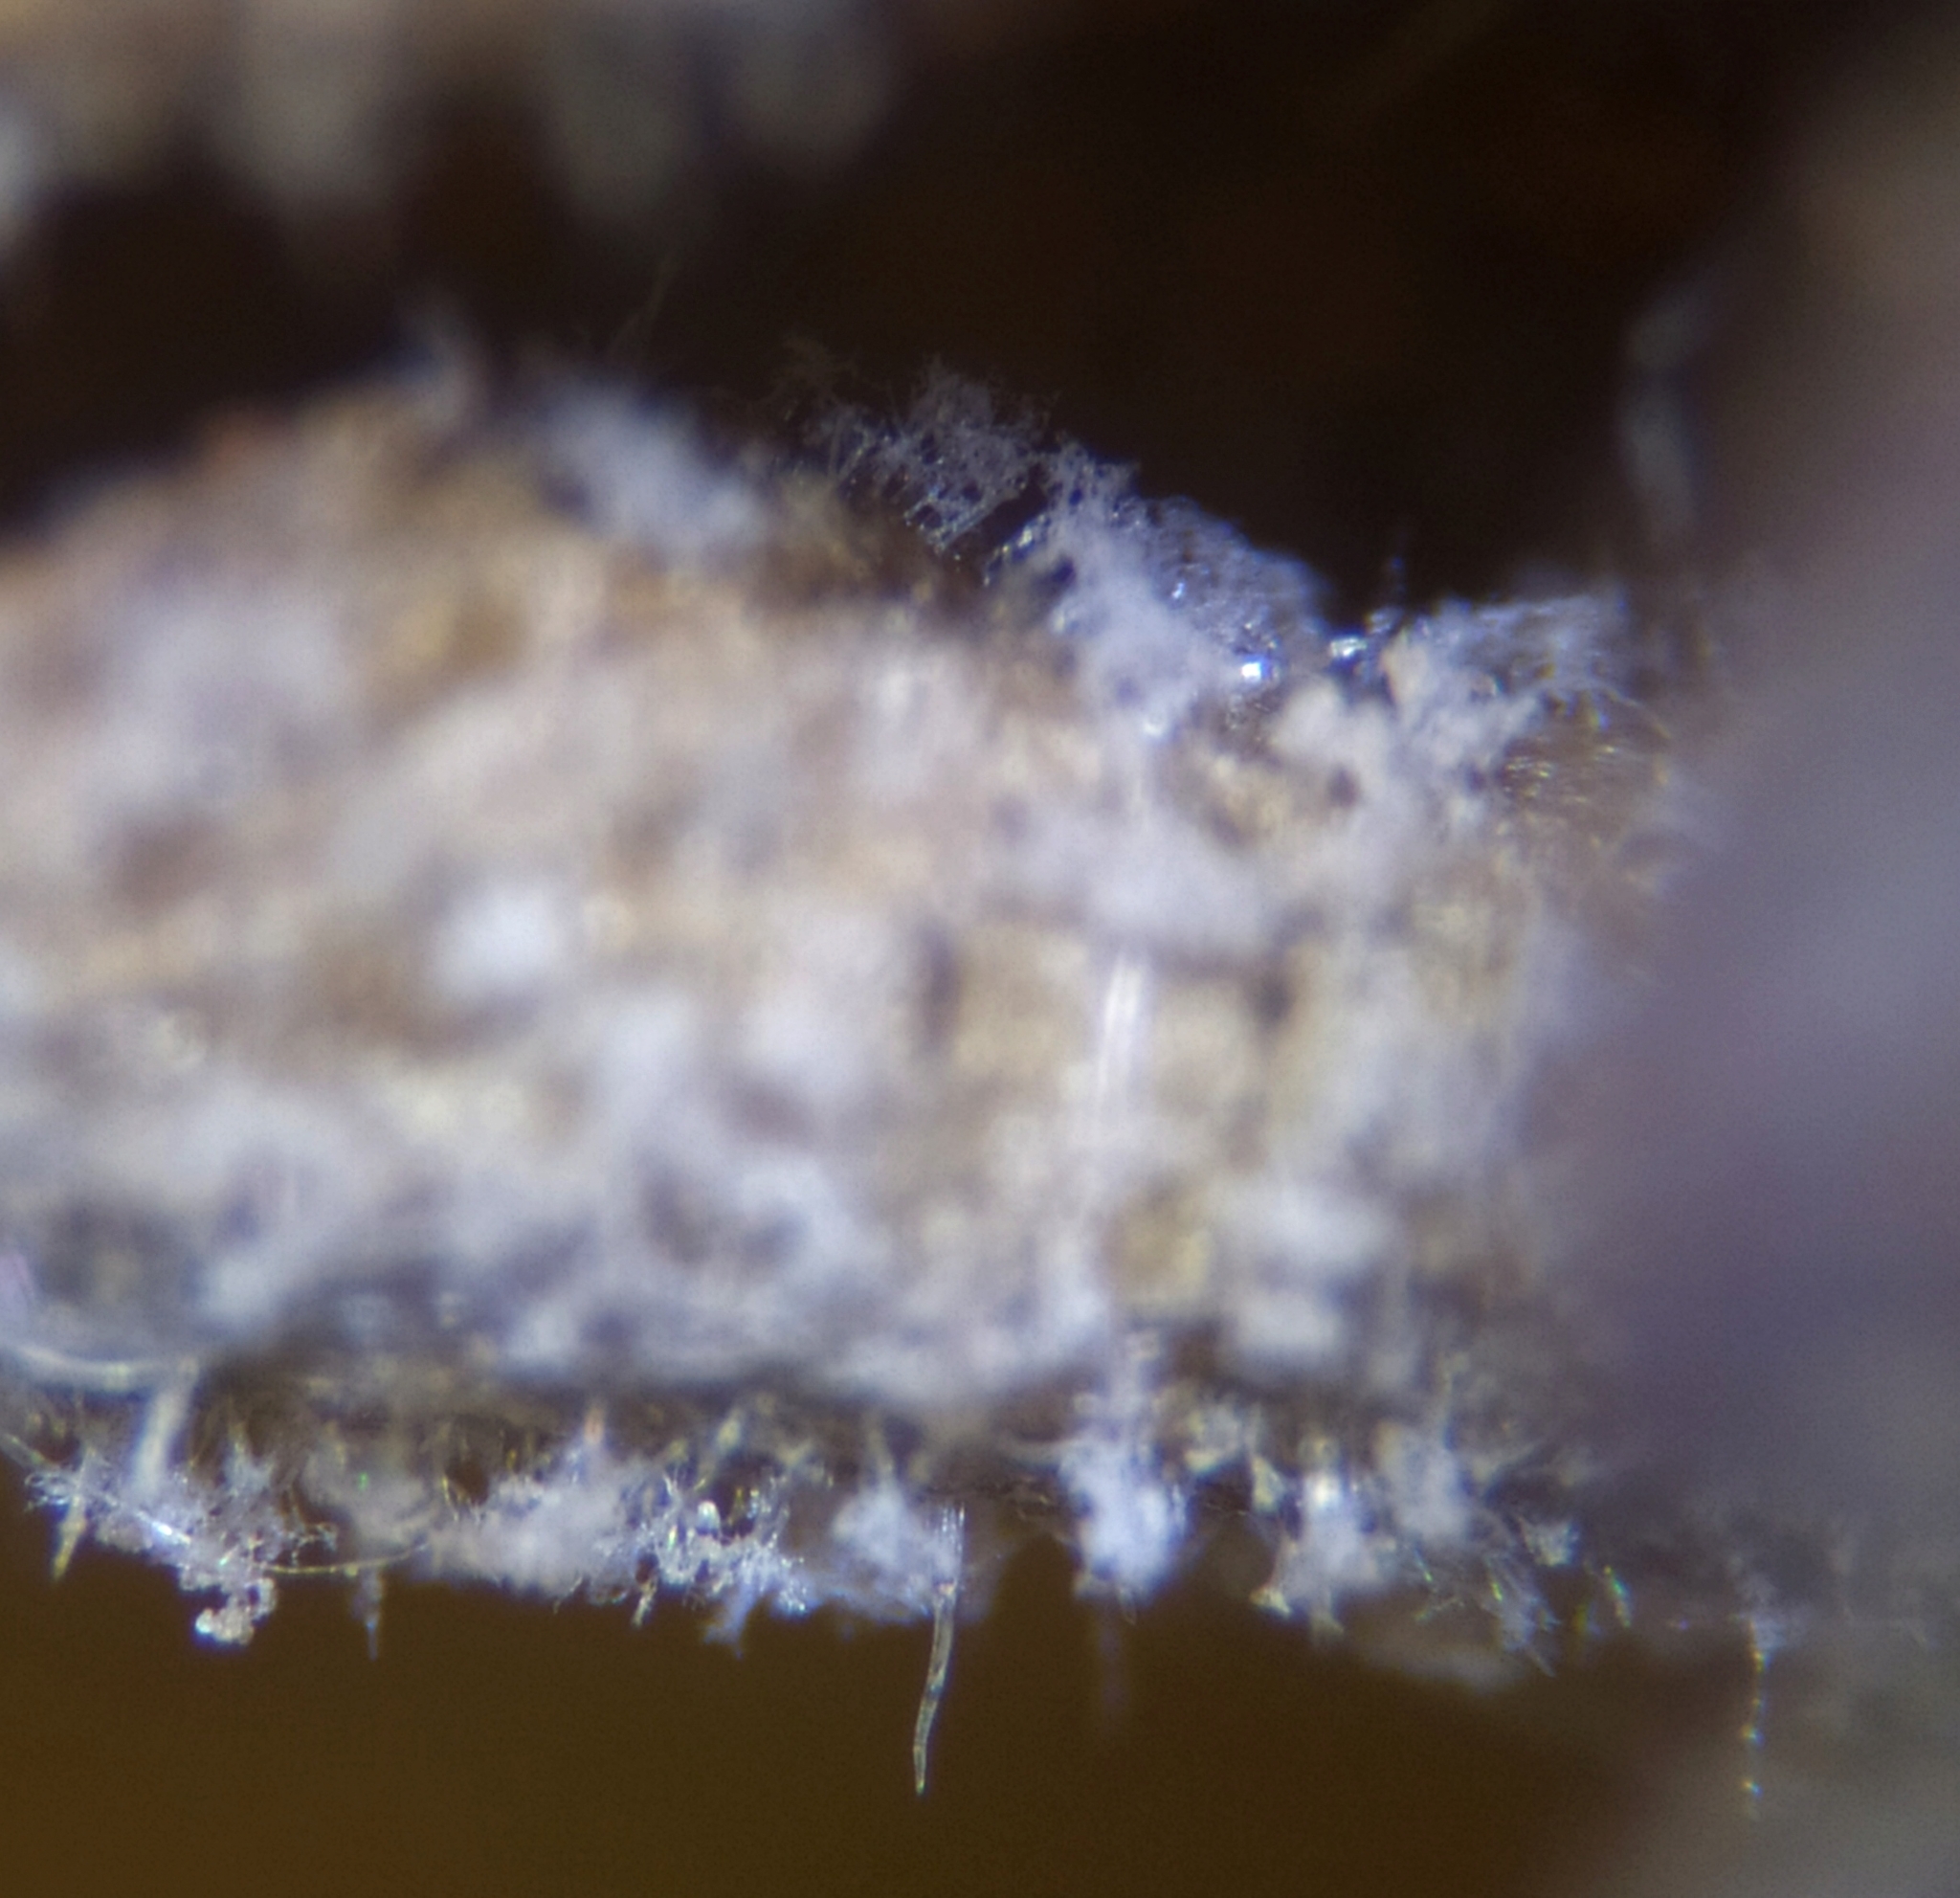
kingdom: Chromista
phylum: Oomycota
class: Peronosporea
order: Peronosporales
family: Peronosporaceae
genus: Peronospora
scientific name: Peronospora agrestis
